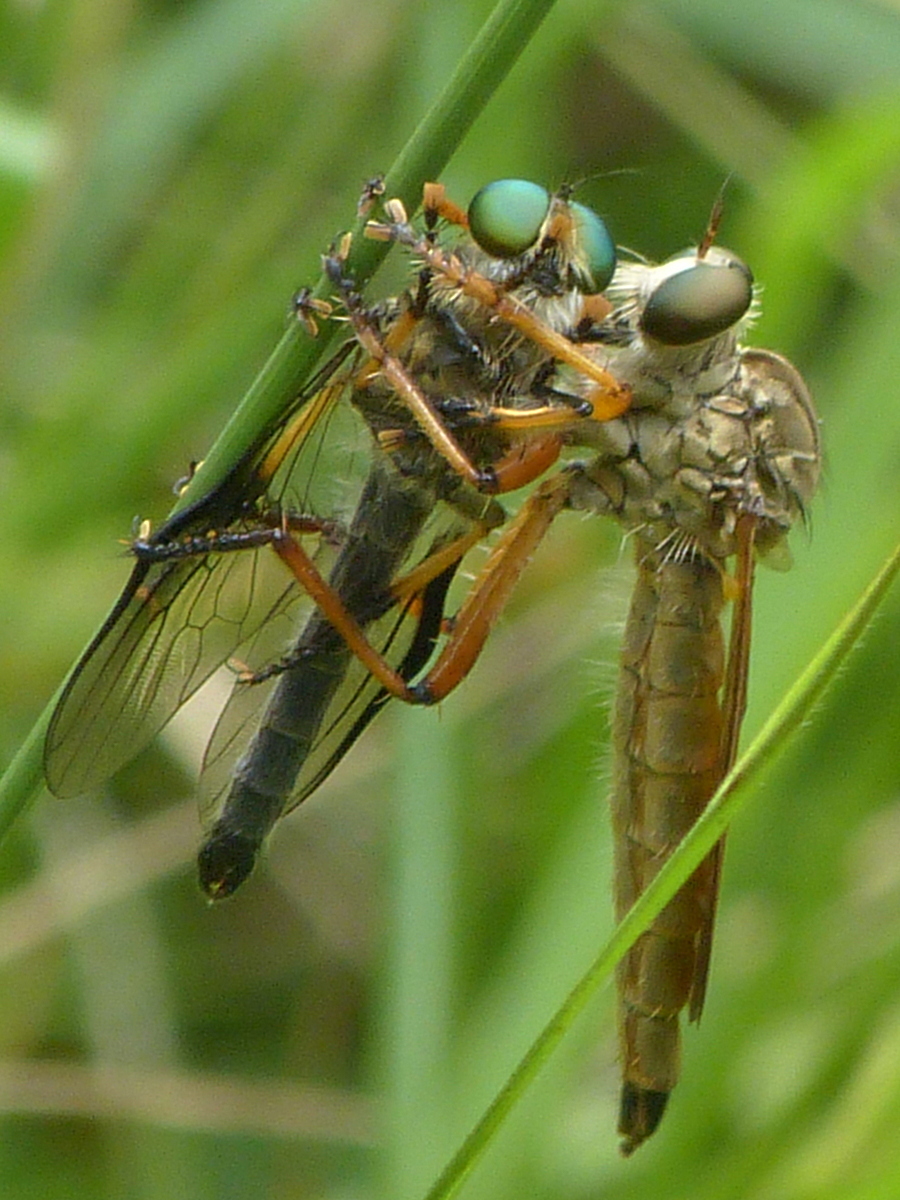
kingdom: Animalia
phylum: Arthropoda
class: Insecta
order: Diptera
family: Asilidae
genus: Zosteria
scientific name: Zosteria fulvipubescens
